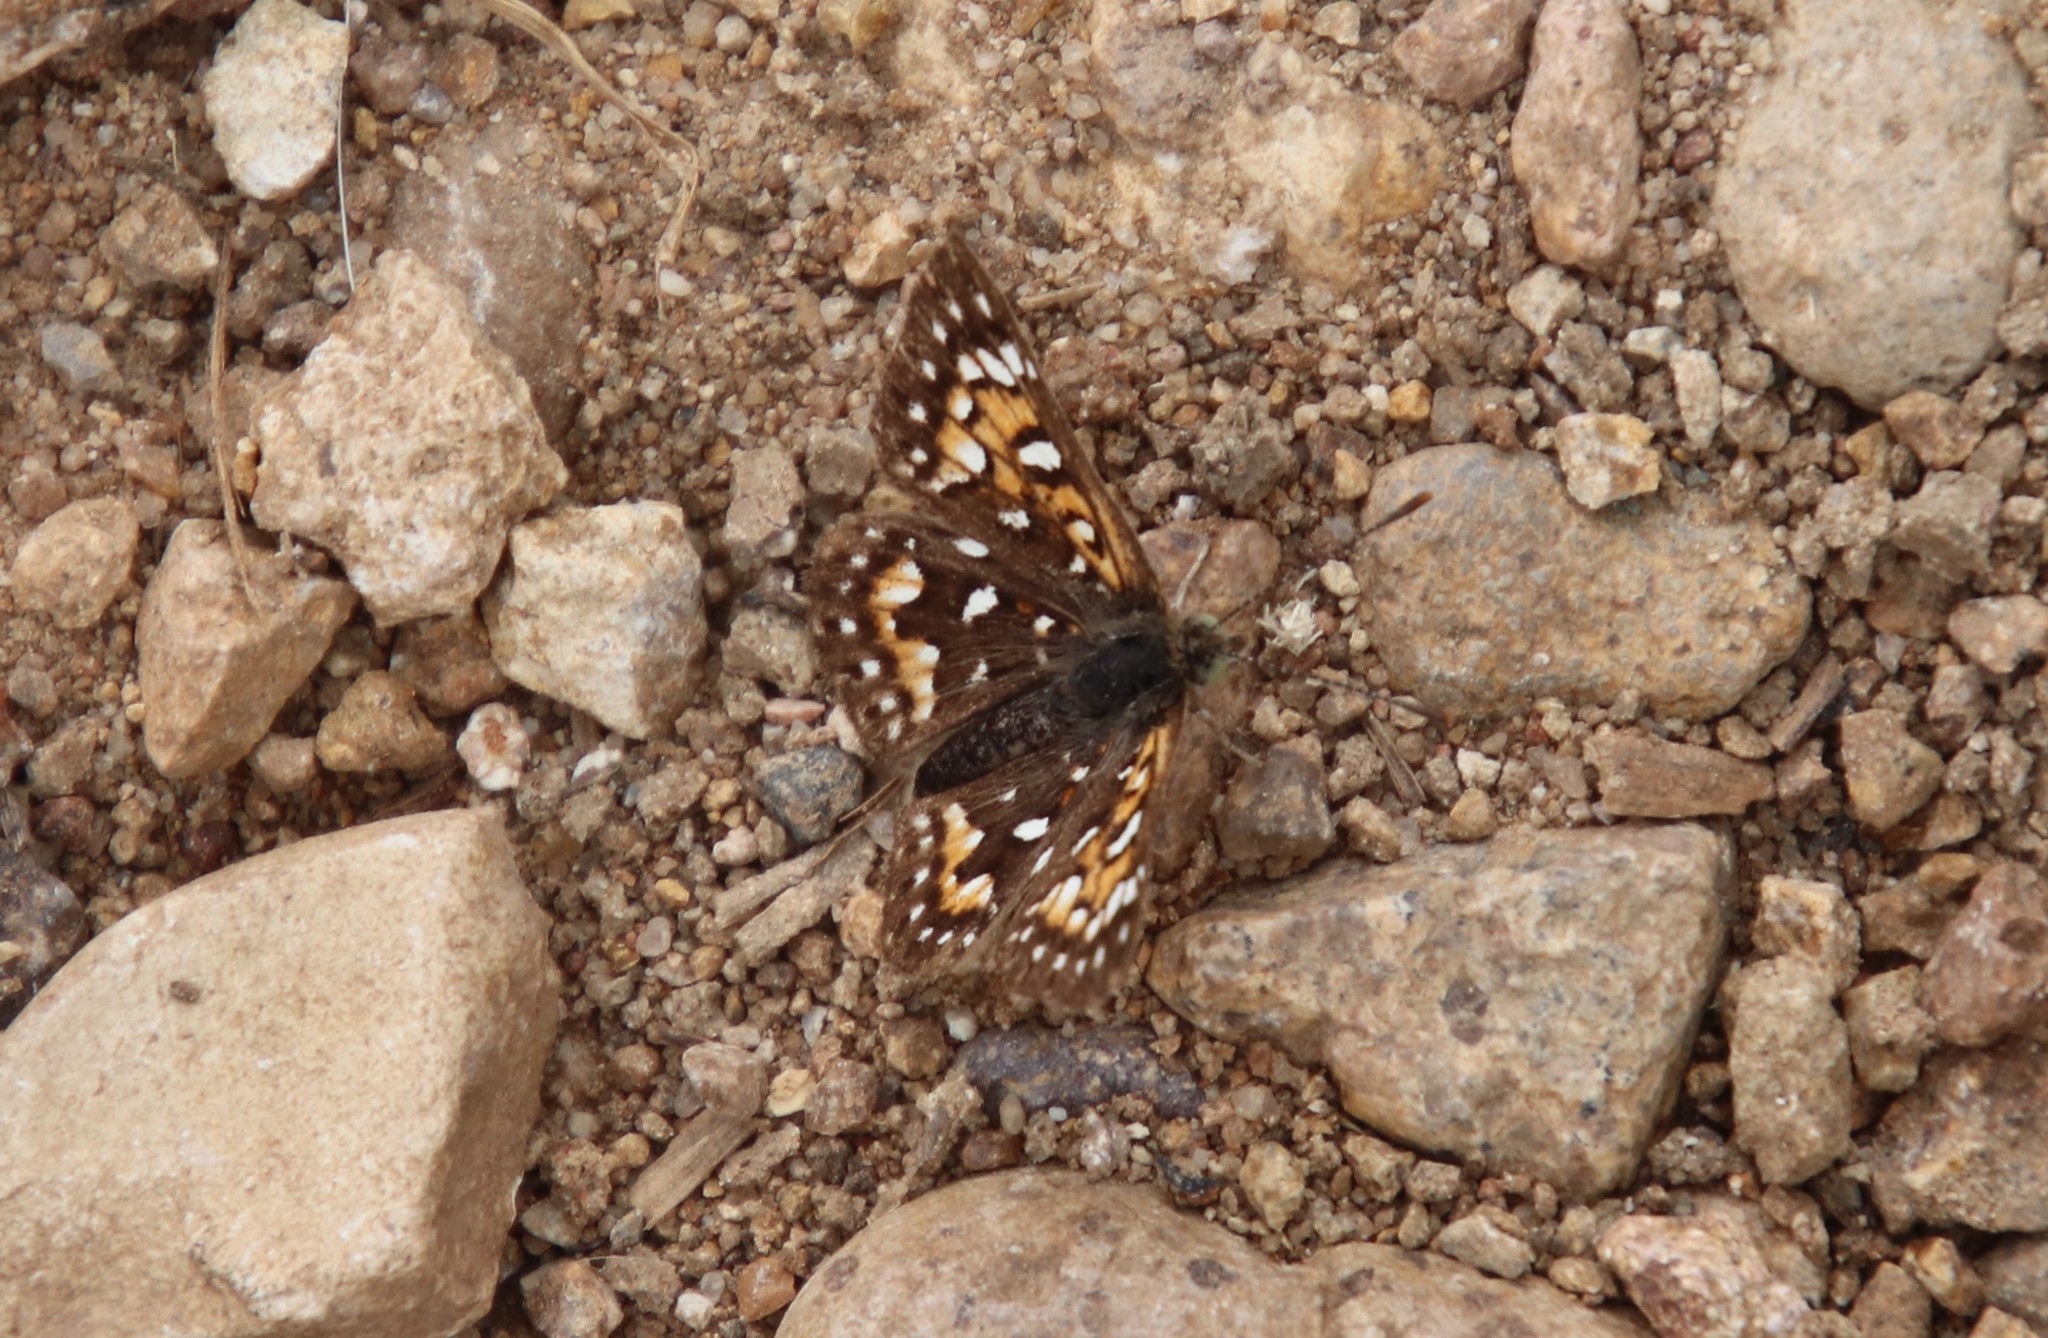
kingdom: Animalia
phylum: Arthropoda
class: Insecta
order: Lepidoptera
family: Riodinidae
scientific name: Riodinidae
